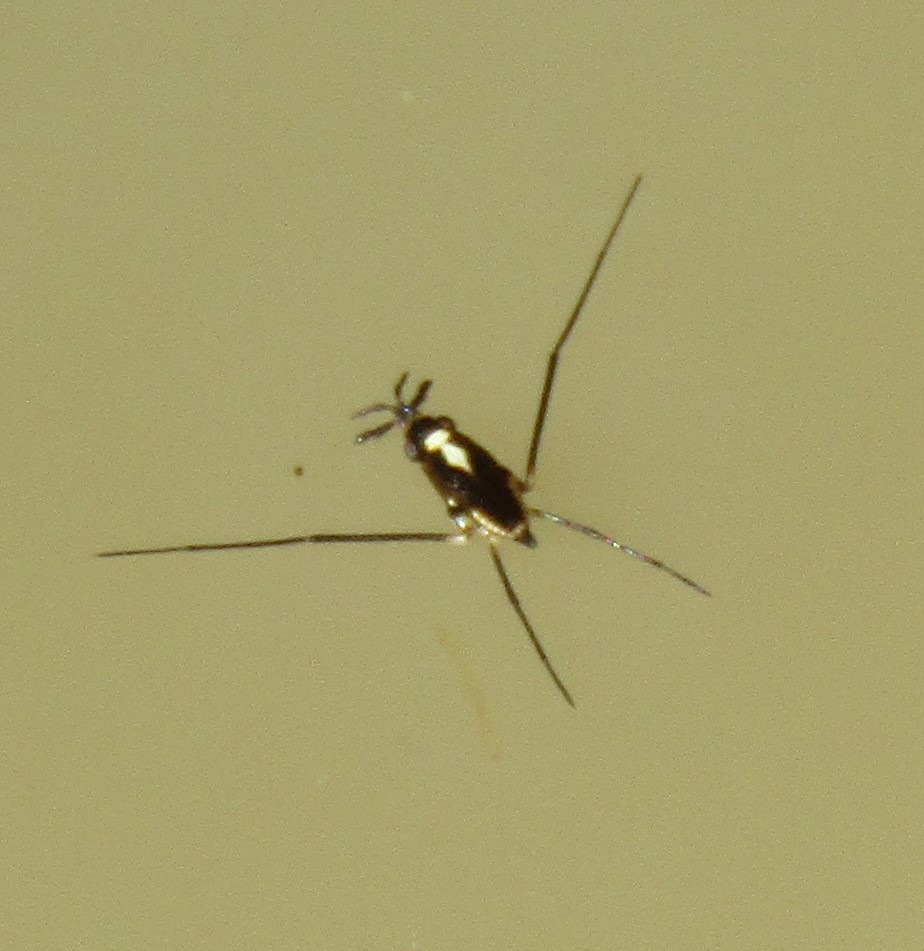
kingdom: Animalia
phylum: Arthropoda
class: Insecta
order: Hemiptera
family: Gerridae
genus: Rheumatobates
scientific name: Rheumatobates
